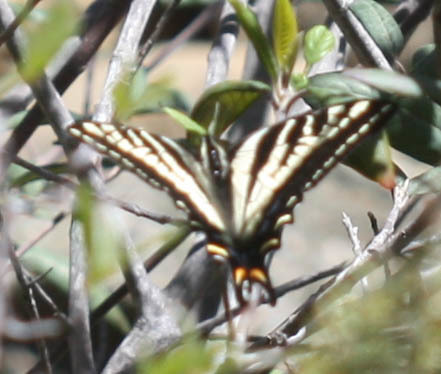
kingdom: Animalia
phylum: Arthropoda
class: Insecta
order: Lepidoptera
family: Papilionidae
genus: Papilio
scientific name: Papilio eurymedon
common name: Pale tiger swallowtail
